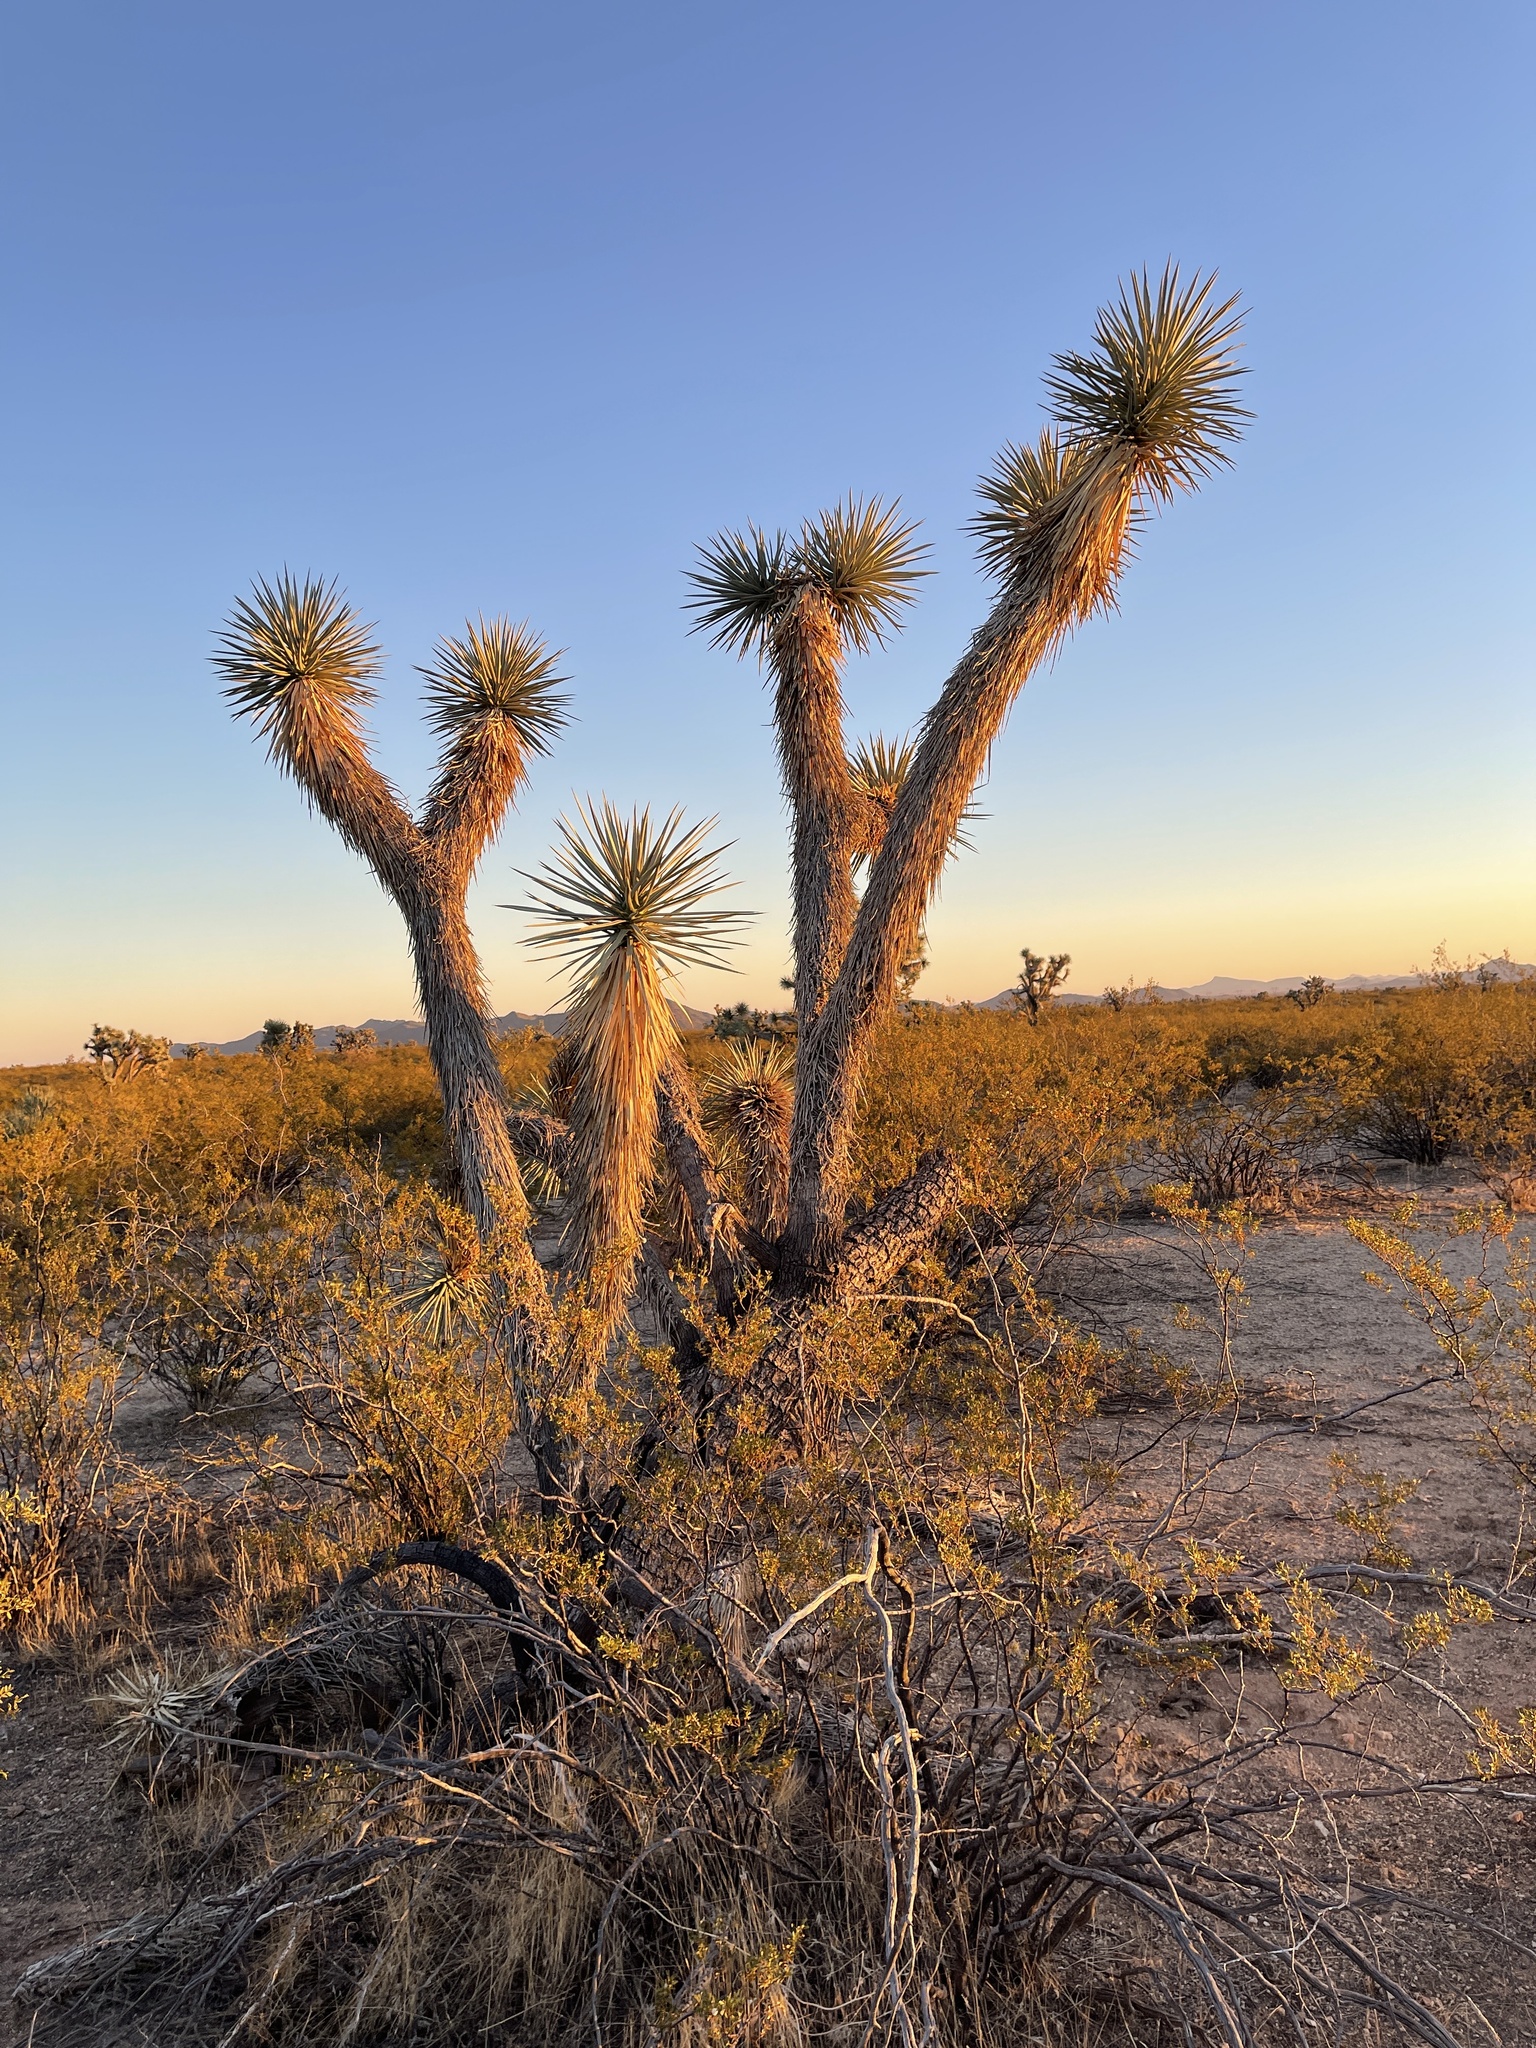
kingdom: Plantae
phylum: Tracheophyta
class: Liliopsida
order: Asparagales
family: Asparagaceae
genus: Yucca
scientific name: Yucca brevifolia
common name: Joshua tree
